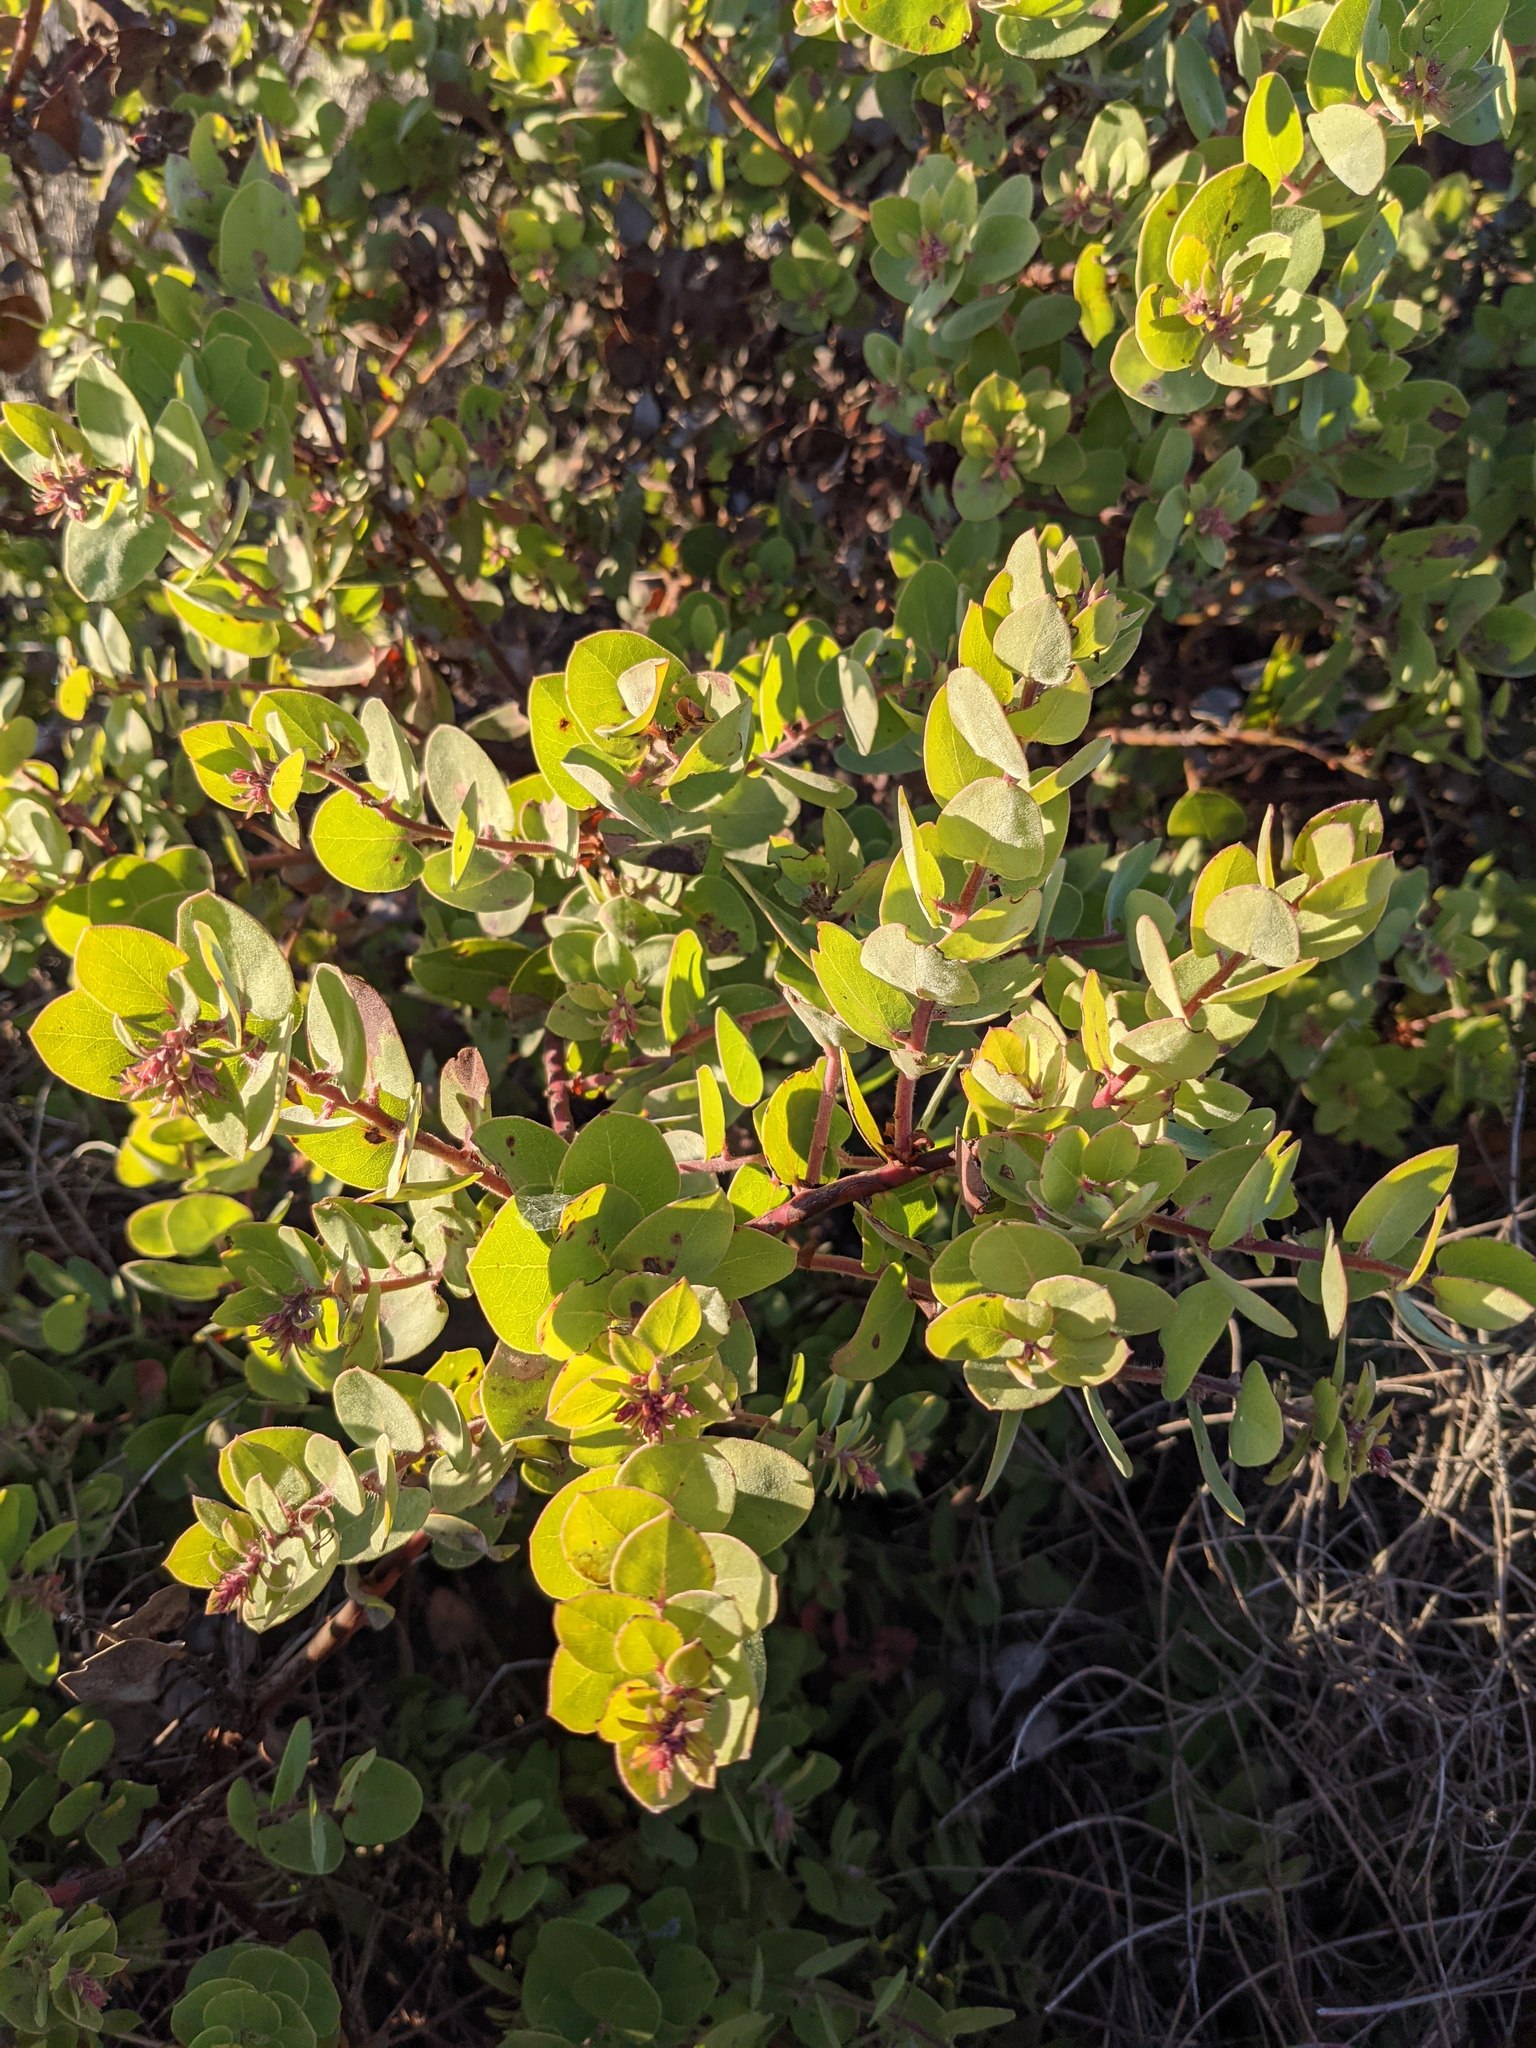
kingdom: Plantae
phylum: Tracheophyta
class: Magnoliopsida
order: Ericales
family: Ericaceae
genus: Arctostaphylos
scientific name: Arctostaphylos morroensis
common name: Morro manzanita
